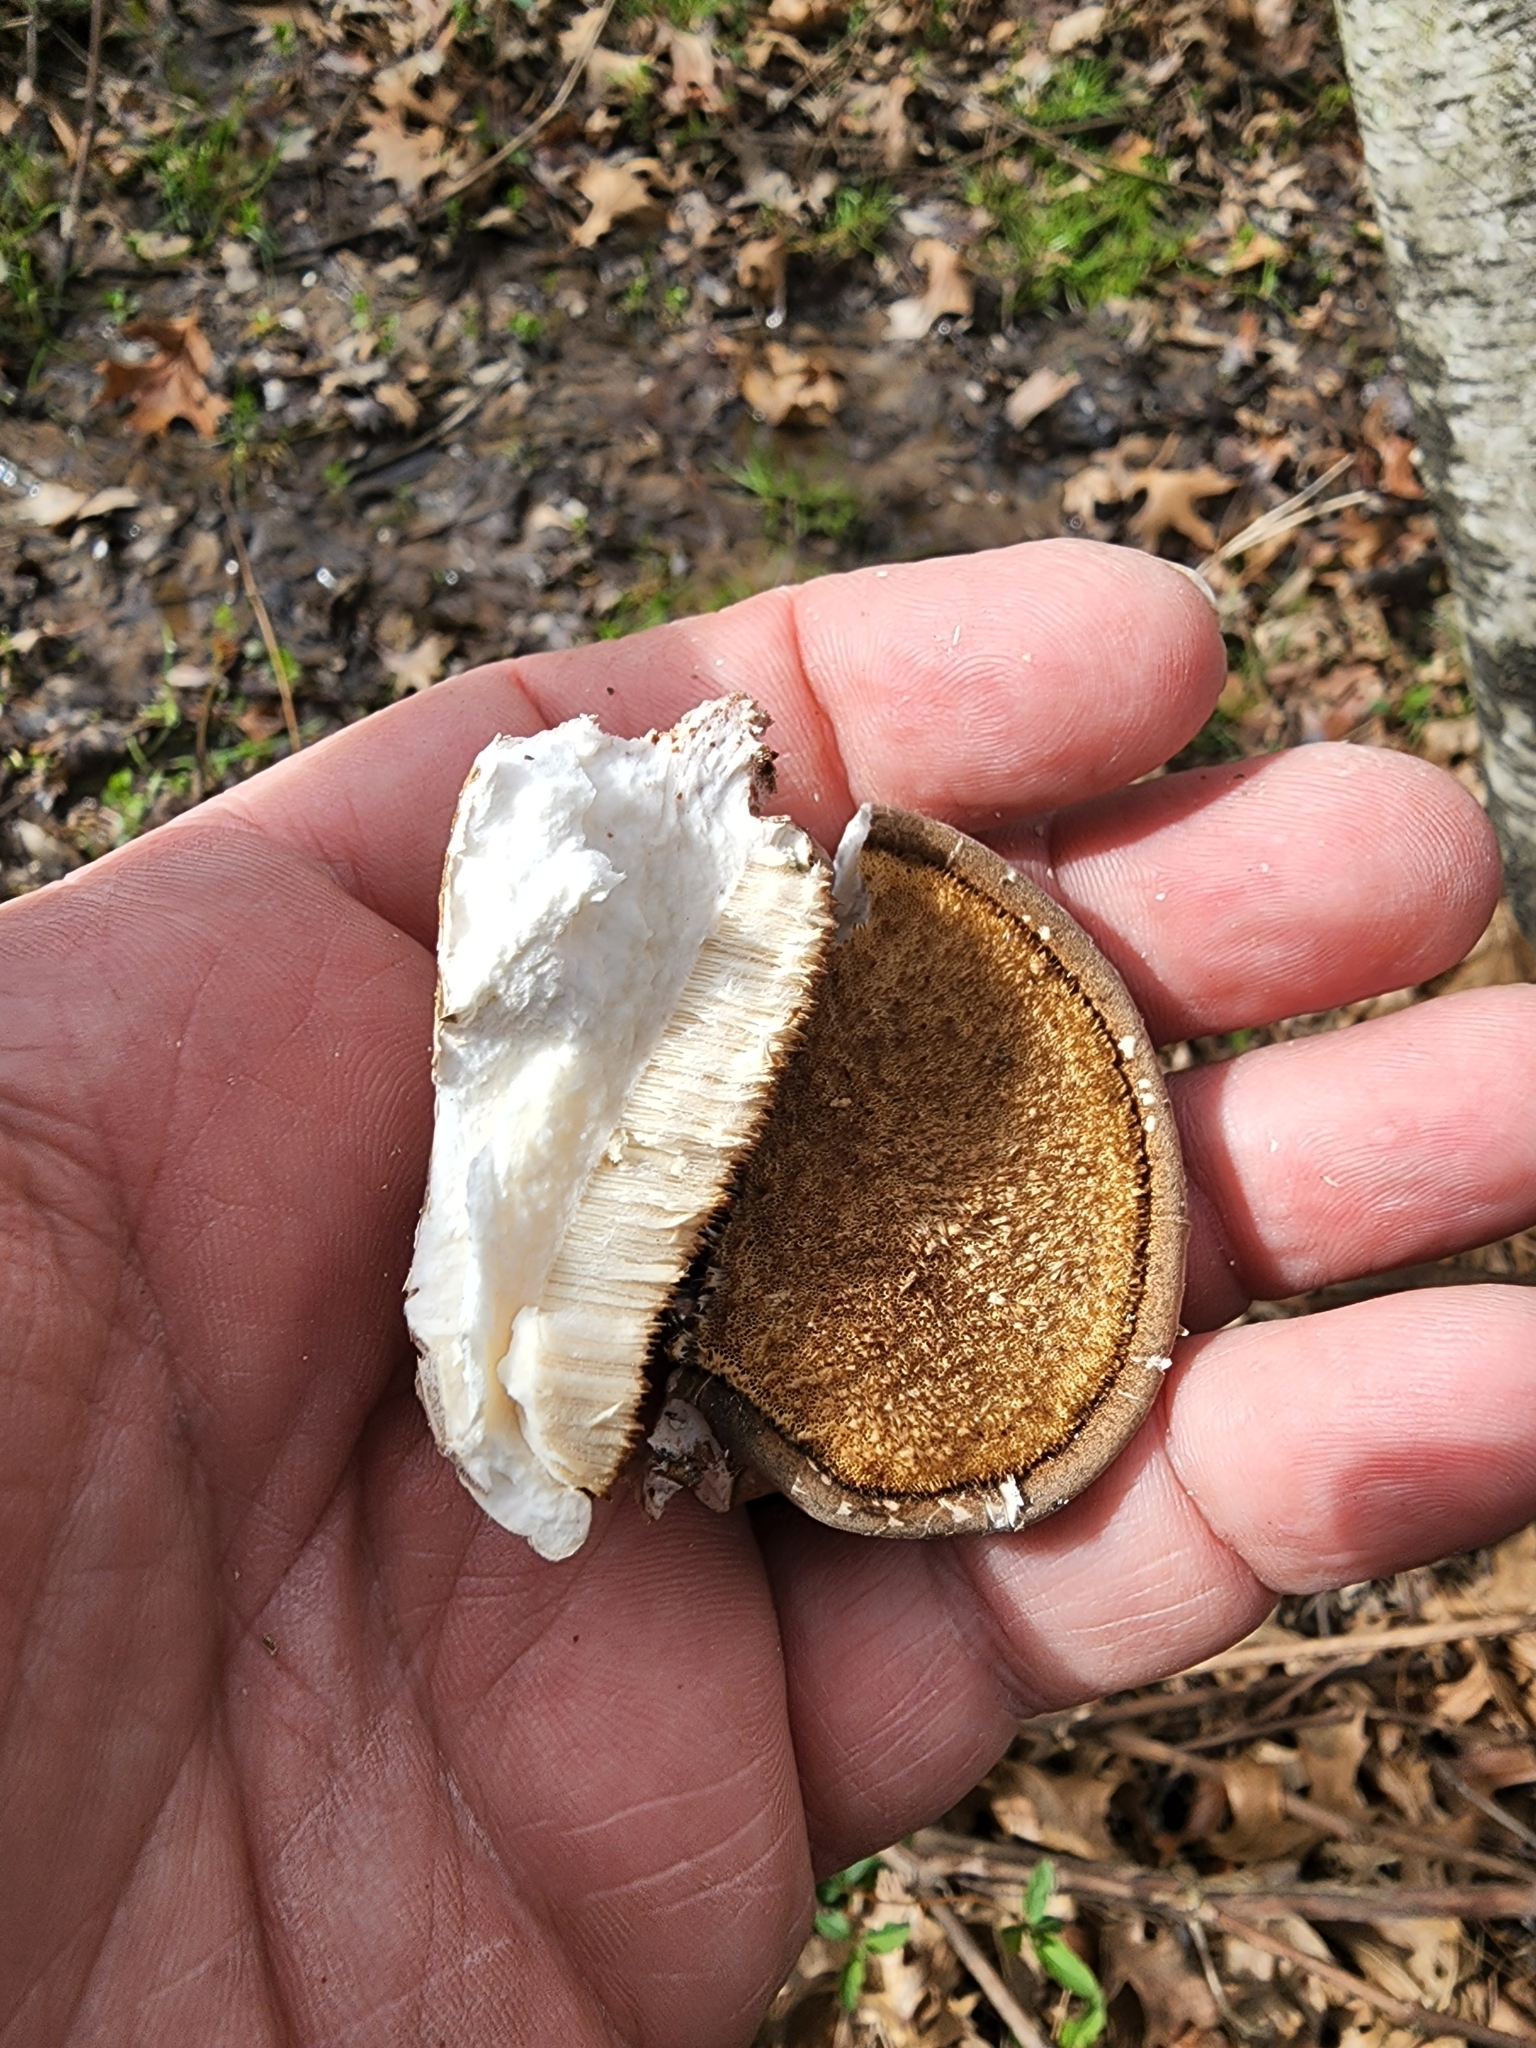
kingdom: Fungi
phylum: Basidiomycota
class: Agaricomycetes
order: Polyporales
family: Fomitopsidaceae
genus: Fomitopsis
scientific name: Fomitopsis betulina
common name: Birch polypore
